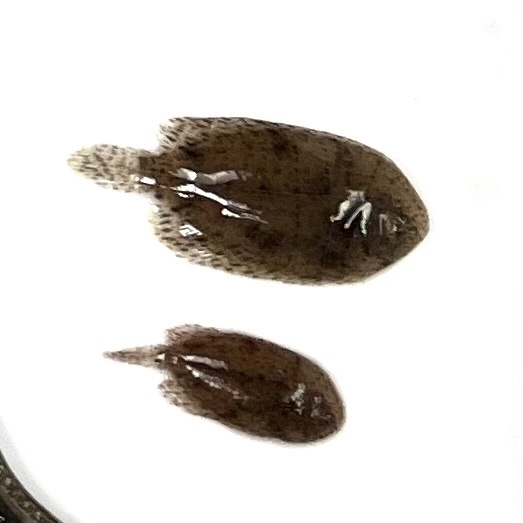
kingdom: Animalia
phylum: Chordata
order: Pleuronectiformes
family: Achiridae
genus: Trinectes
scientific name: Trinectes maculatus
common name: Hogchoker
